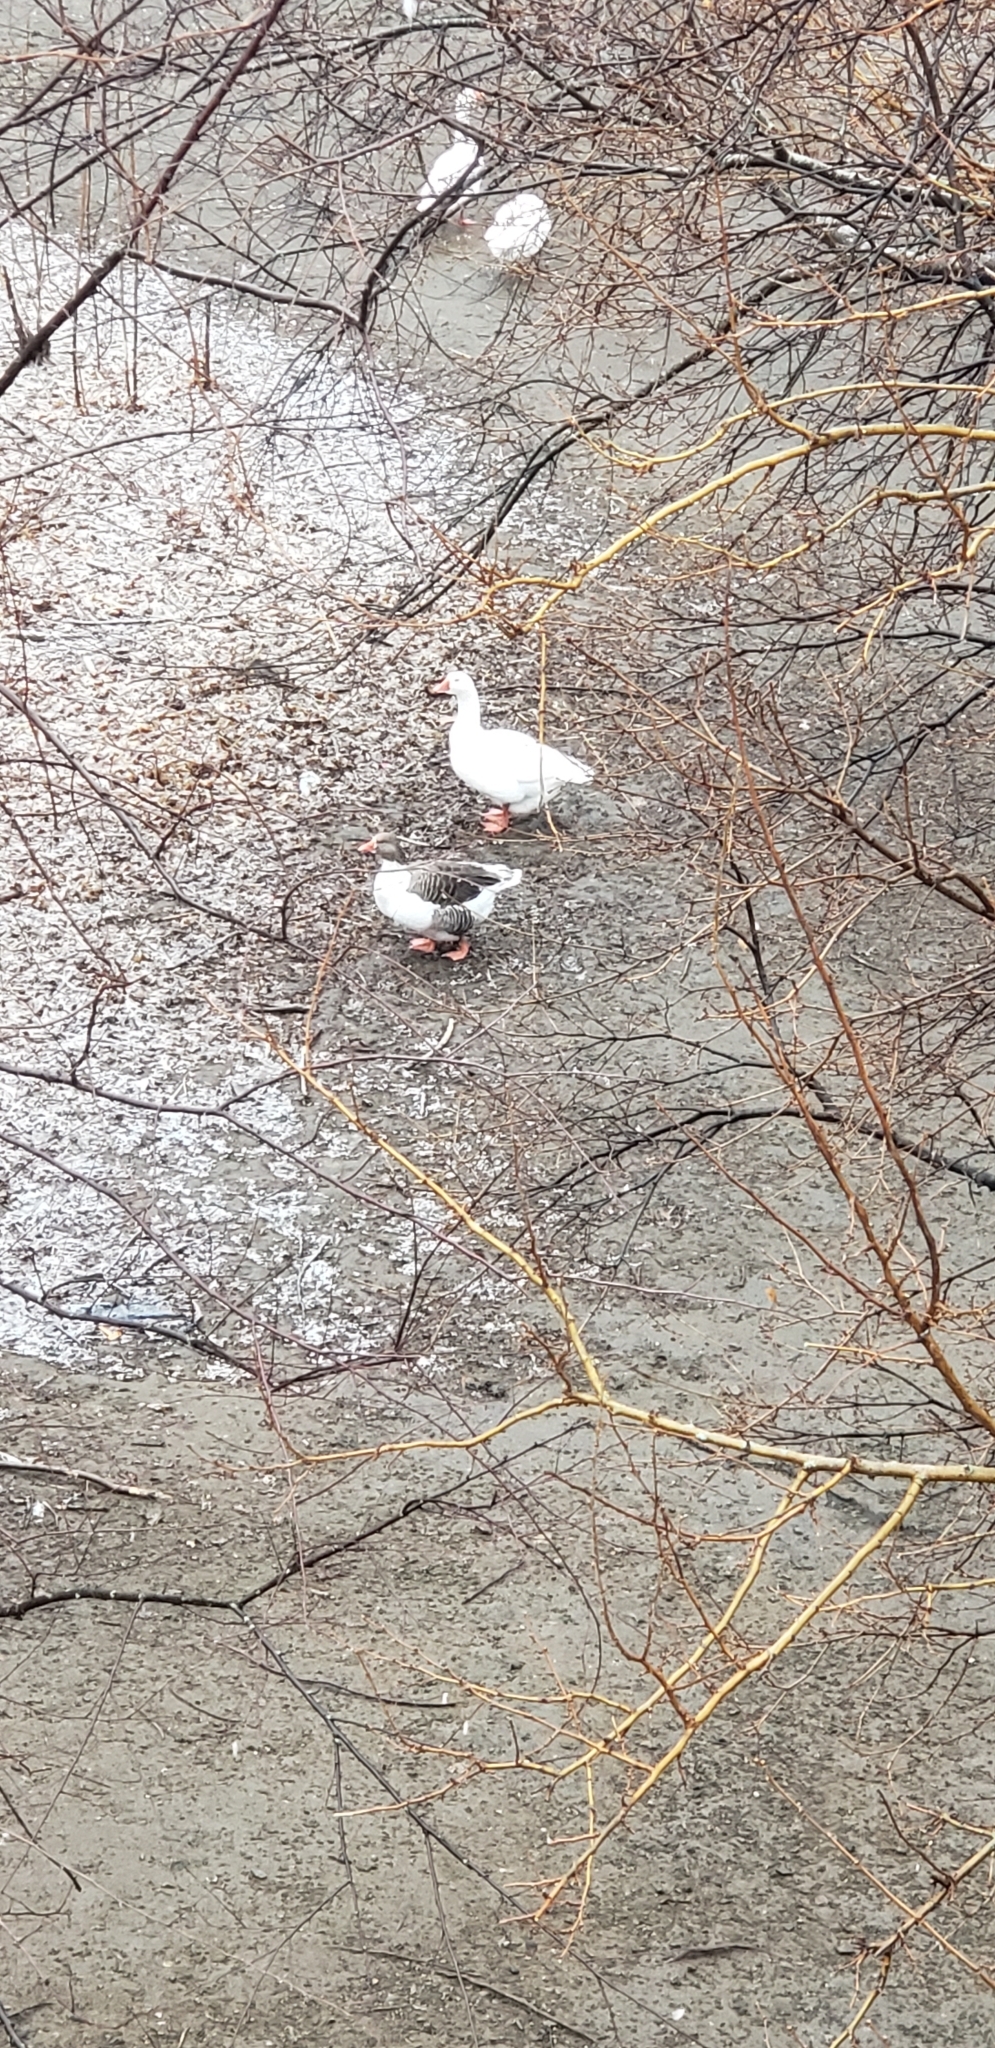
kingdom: Animalia
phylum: Chordata
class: Aves
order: Anseriformes
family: Anatidae
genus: Anser
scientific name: Anser anser
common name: Greylag goose
